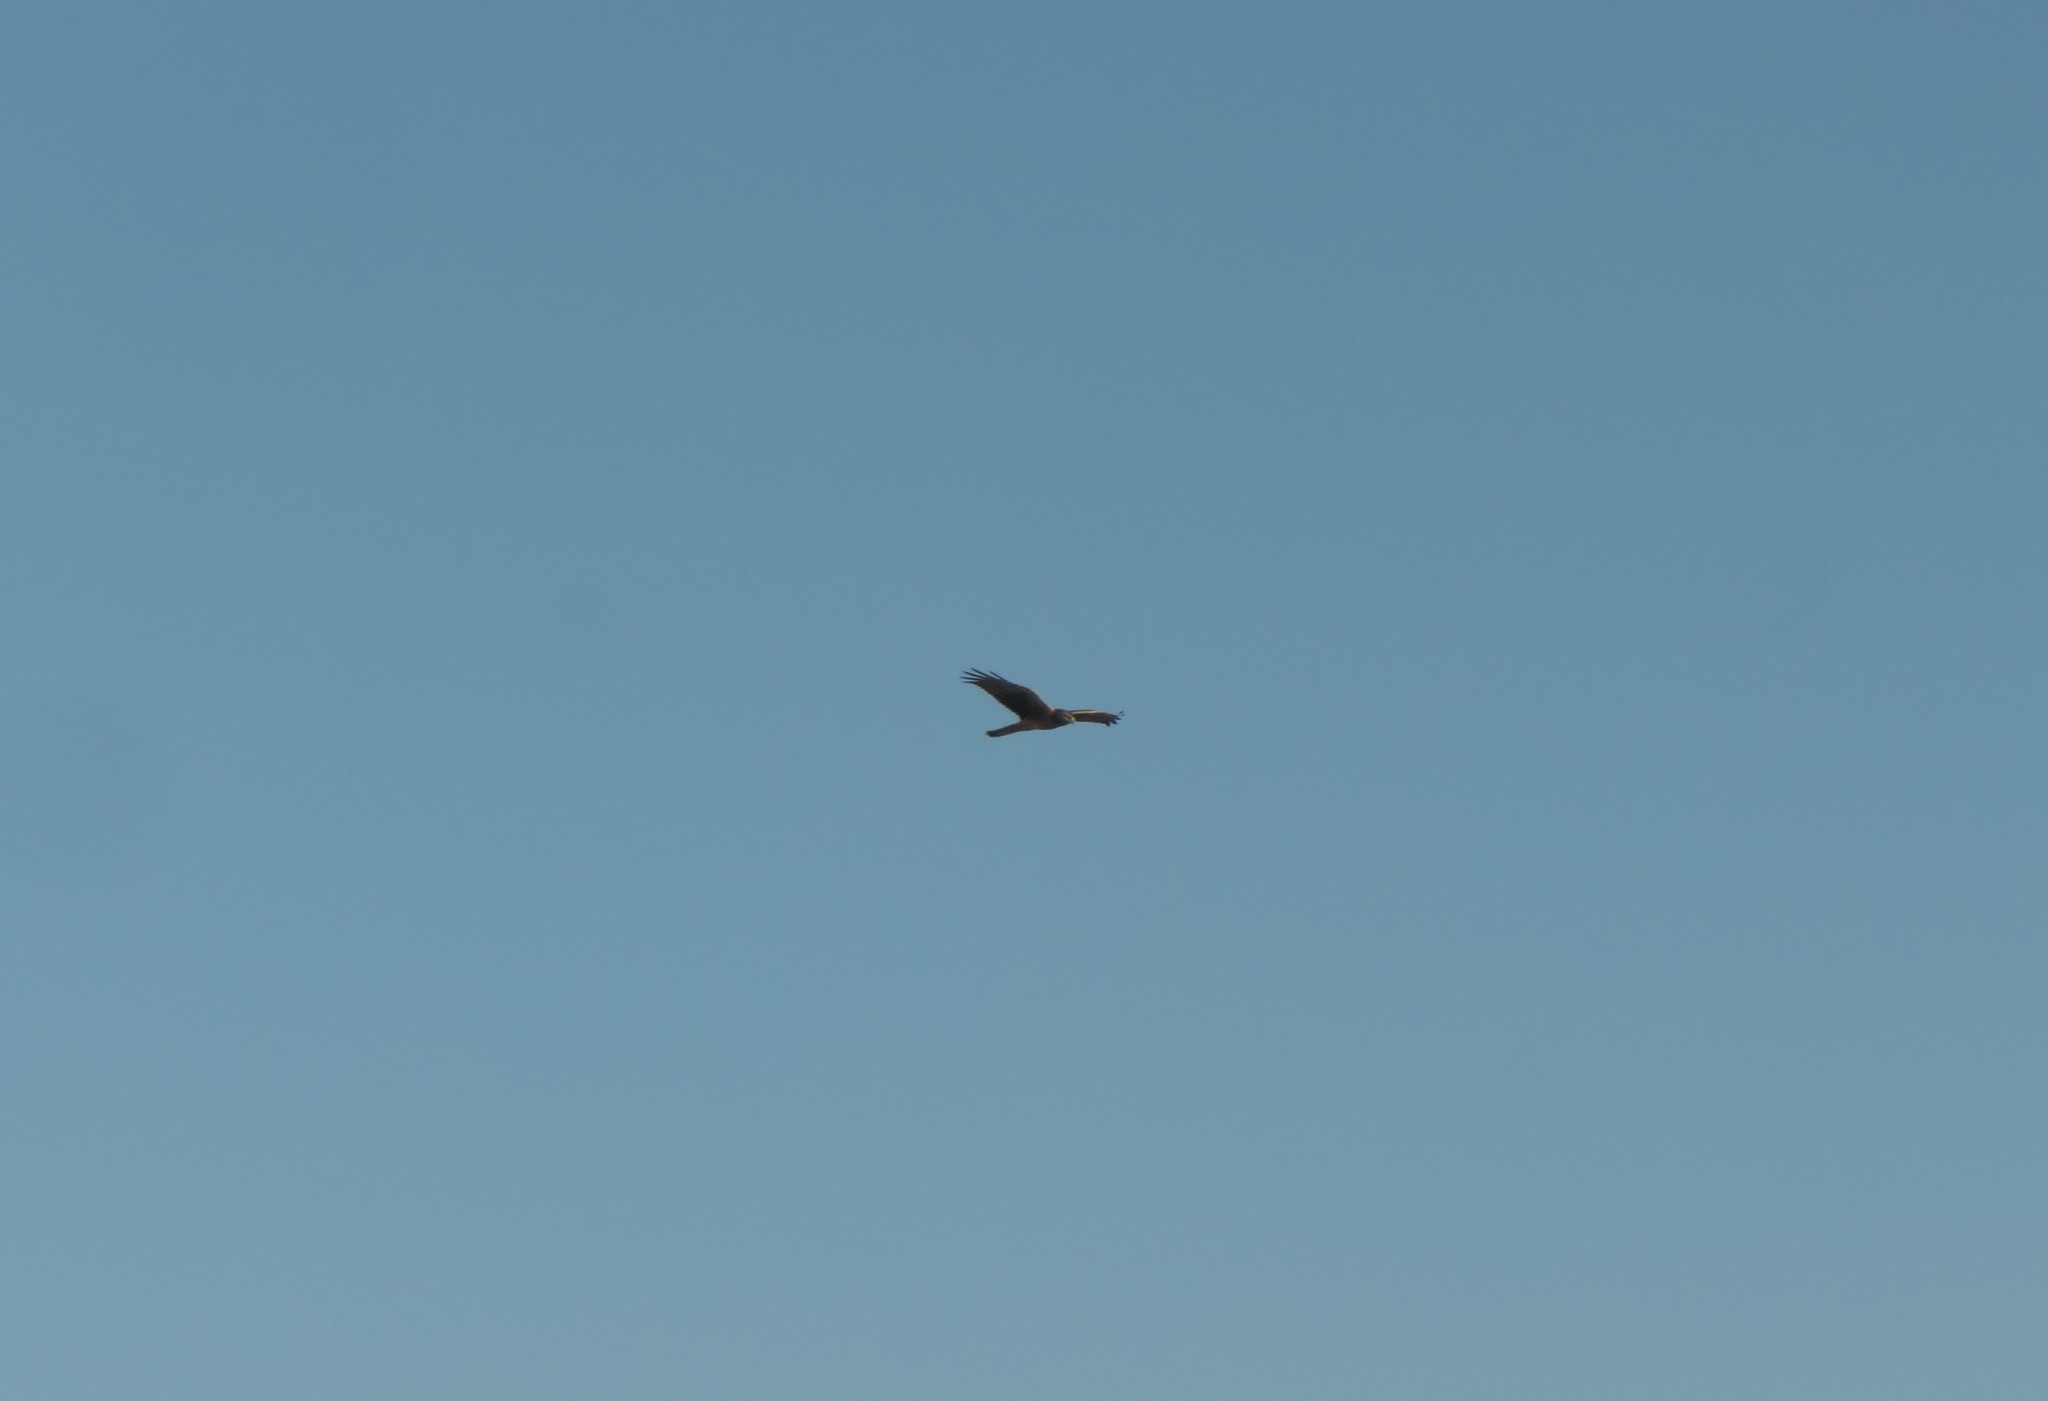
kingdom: Animalia
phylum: Chordata
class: Aves
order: Accipitriformes
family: Accipitridae
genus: Circus
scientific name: Circus cyaneus
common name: Hen harrier
